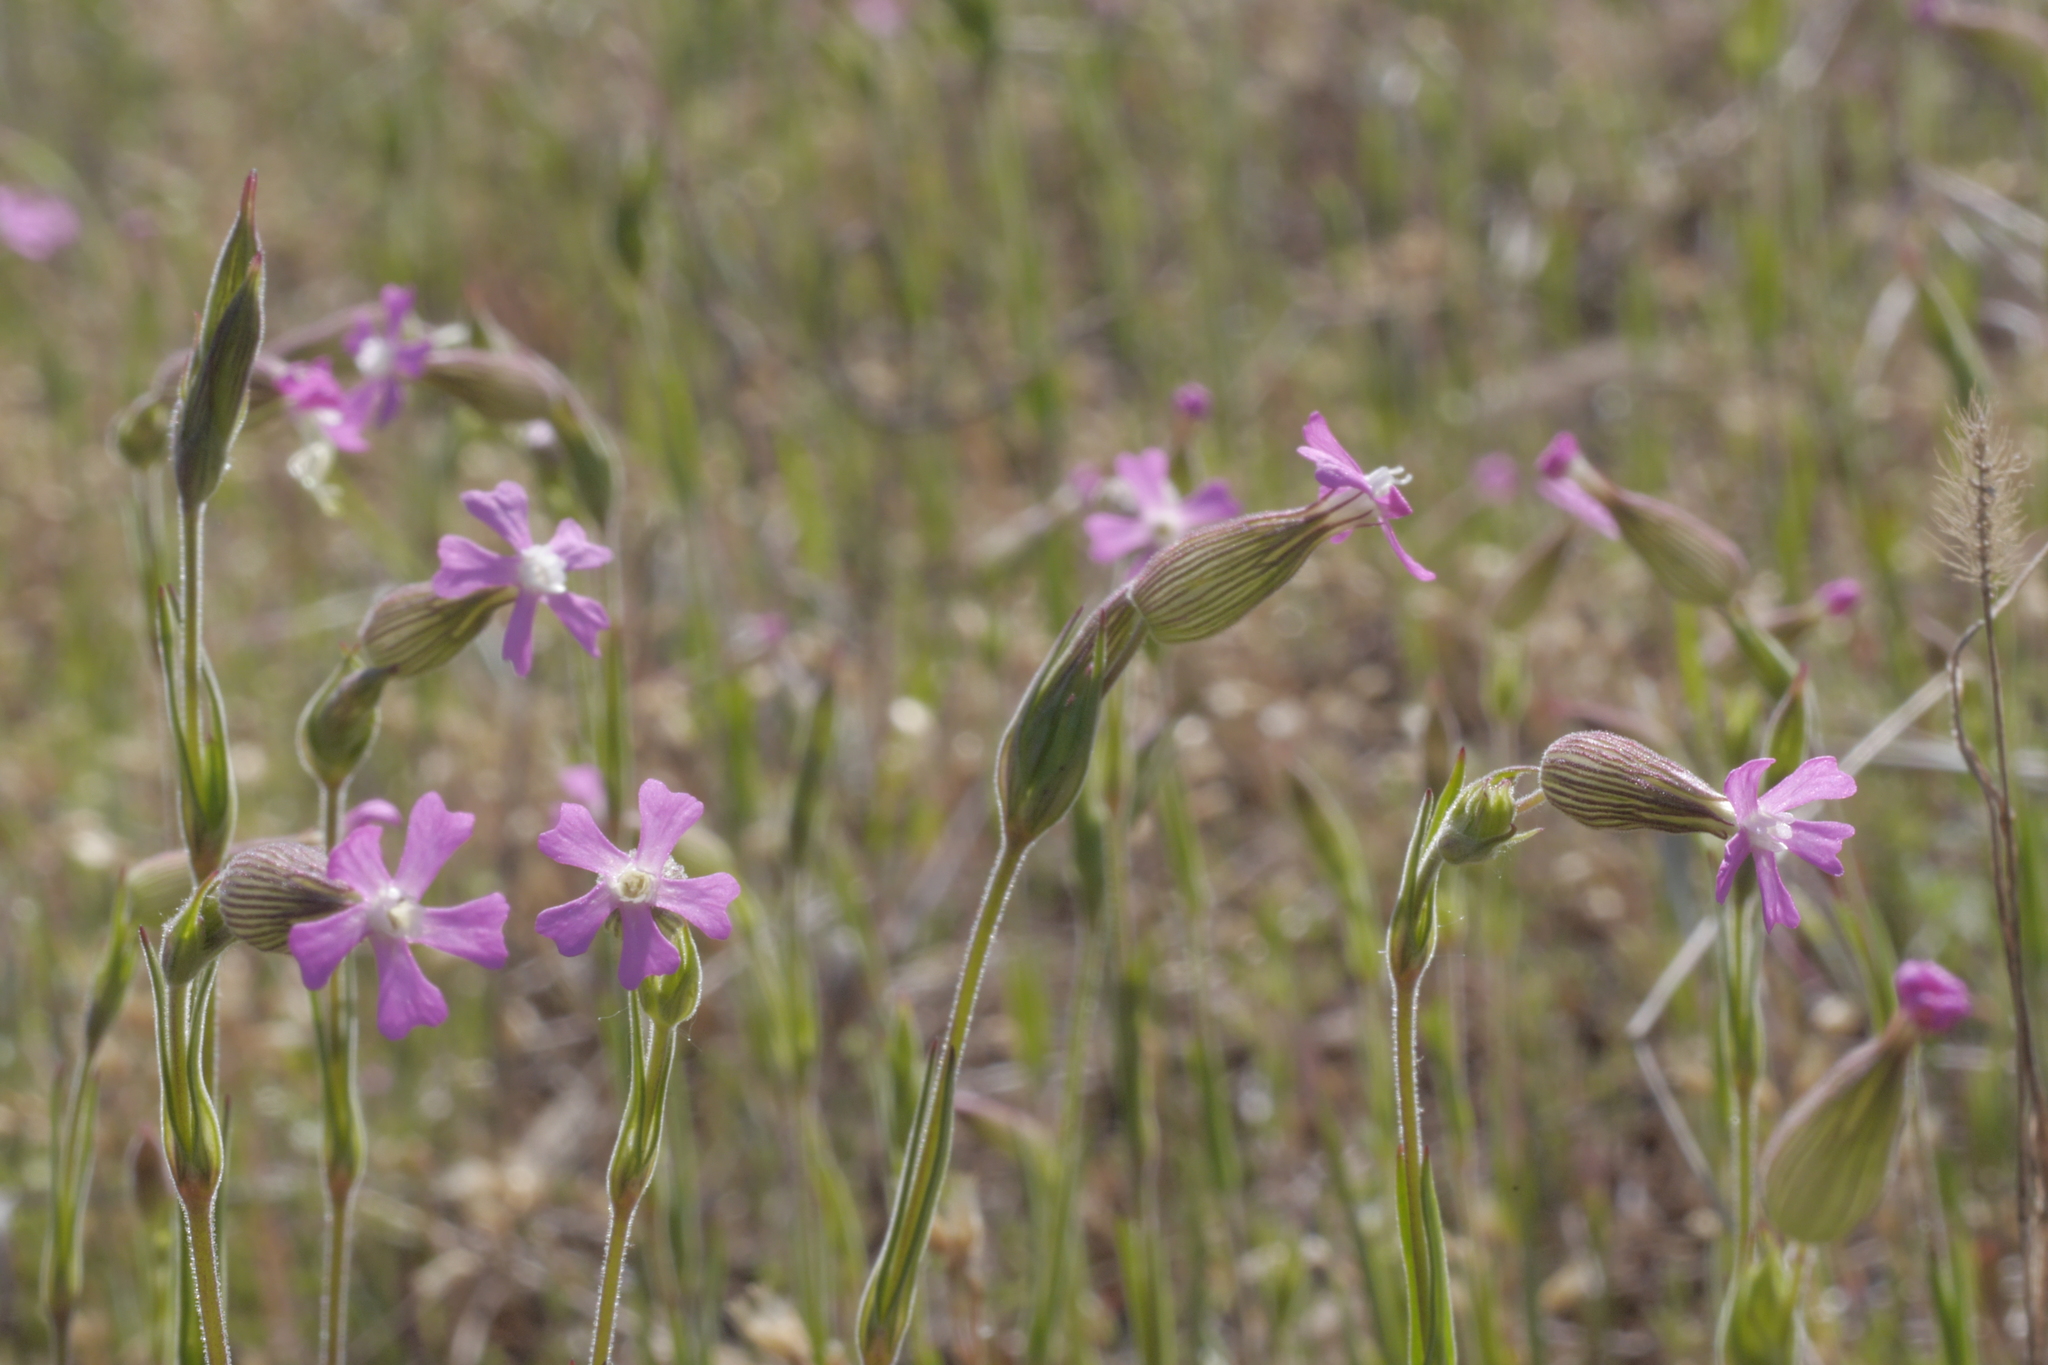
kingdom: Plantae
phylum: Tracheophyta
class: Magnoliopsida
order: Caryophyllales
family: Caryophyllaceae
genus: Silene
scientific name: Silene conica
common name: Sand catchfly
